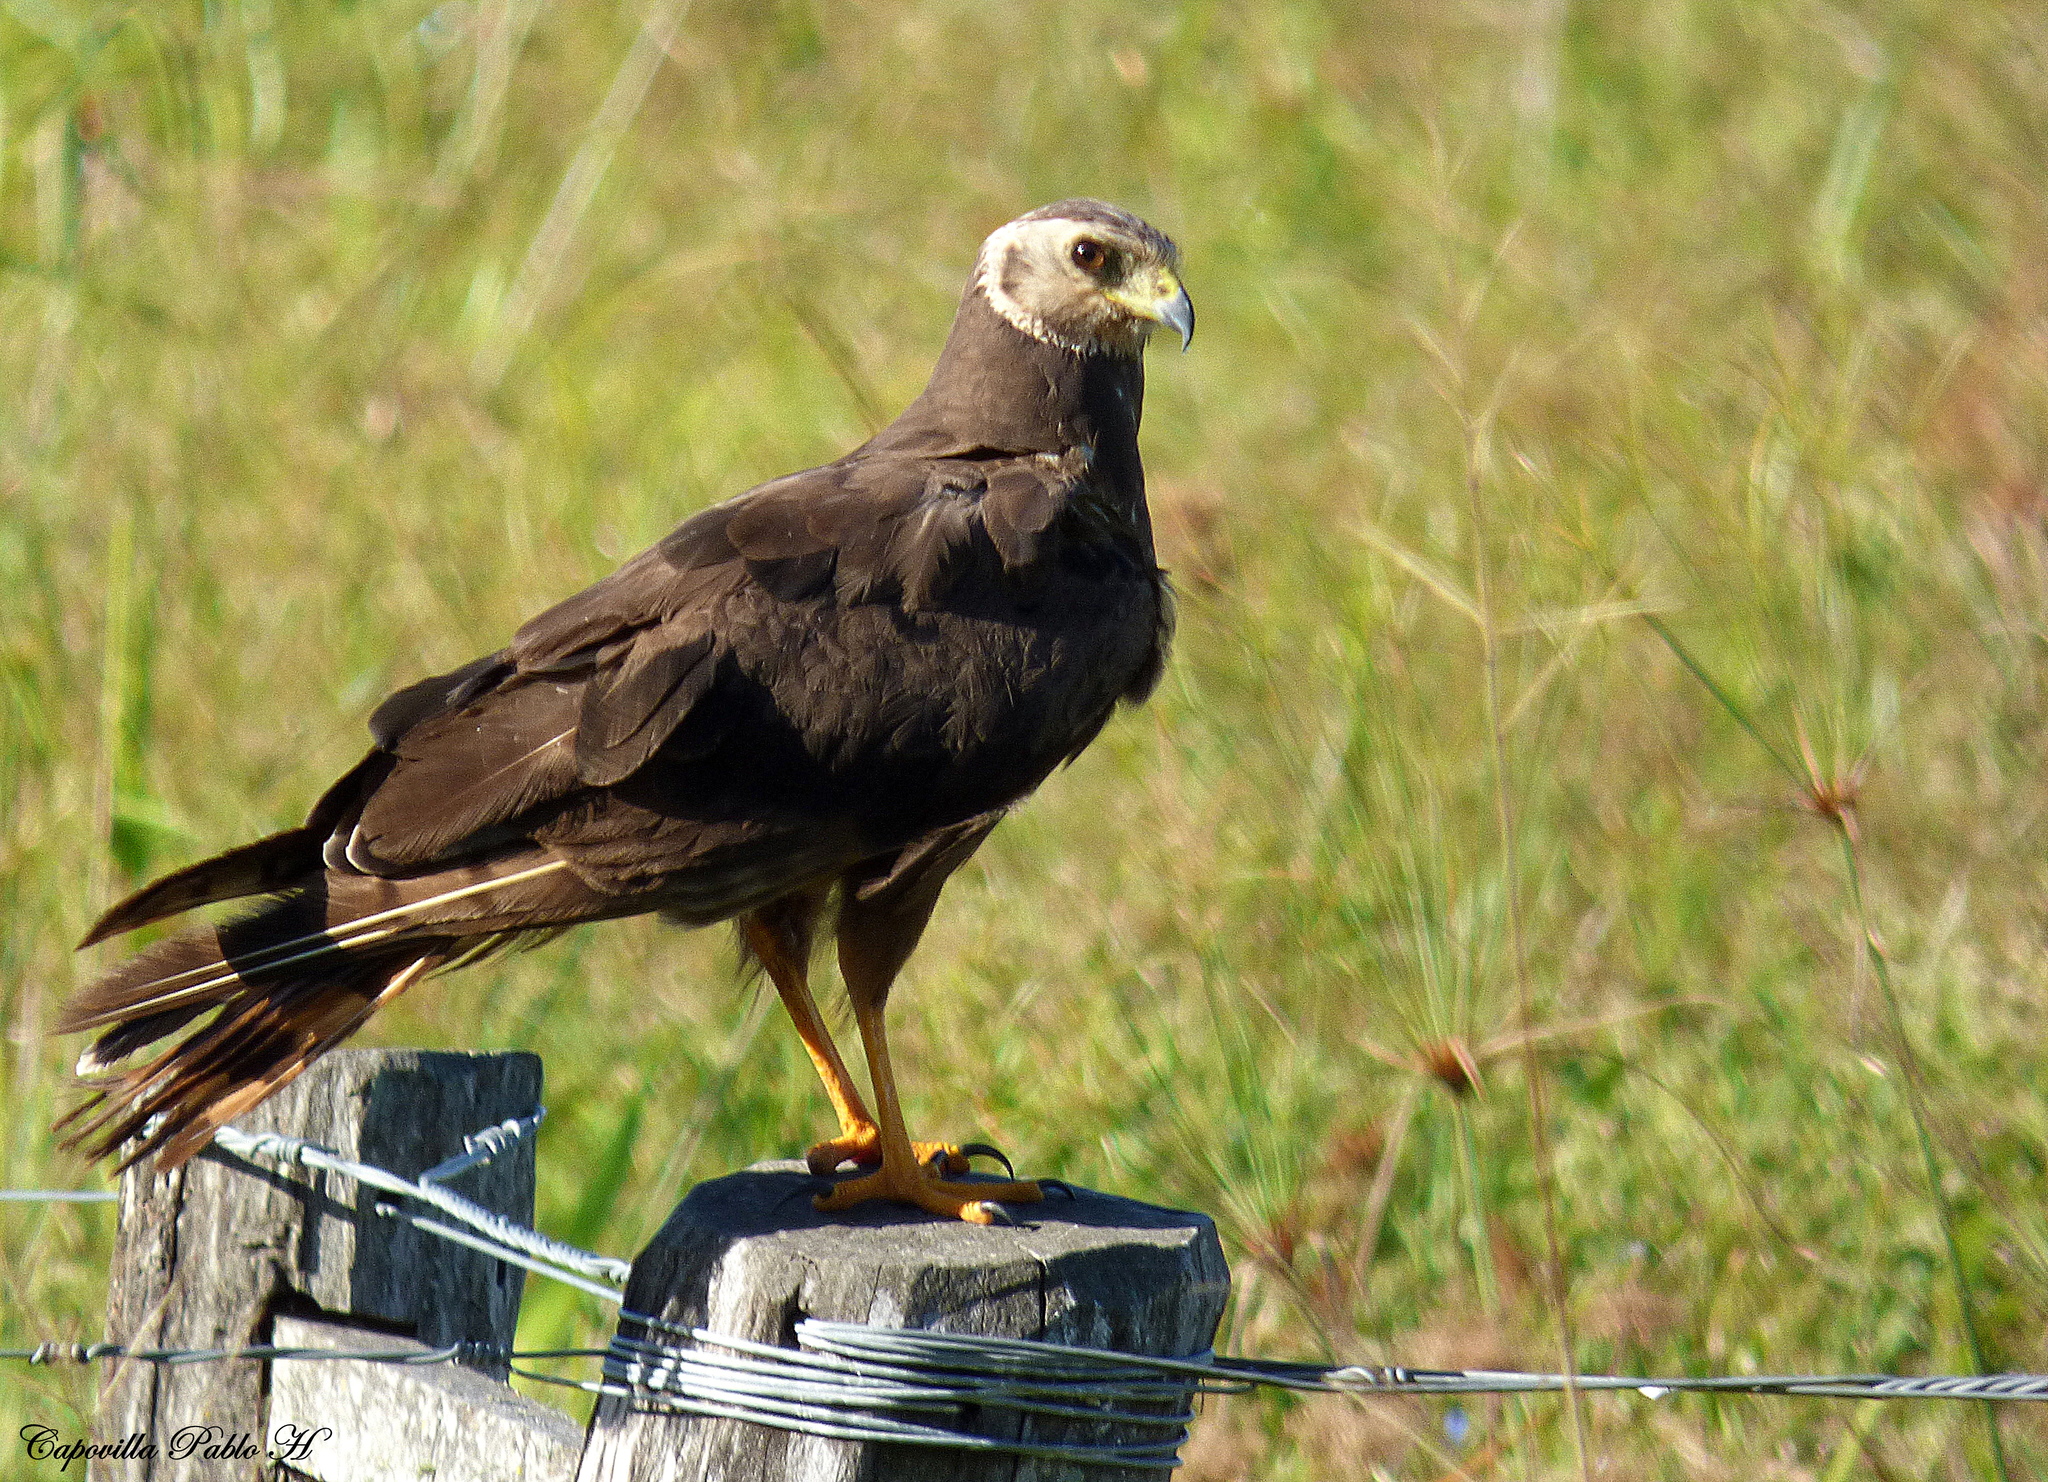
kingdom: Animalia
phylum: Chordata
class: Aves
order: Accipitriformes
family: Accipitridae
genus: Circus
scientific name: Circus buffoni
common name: Long-winged harrier
